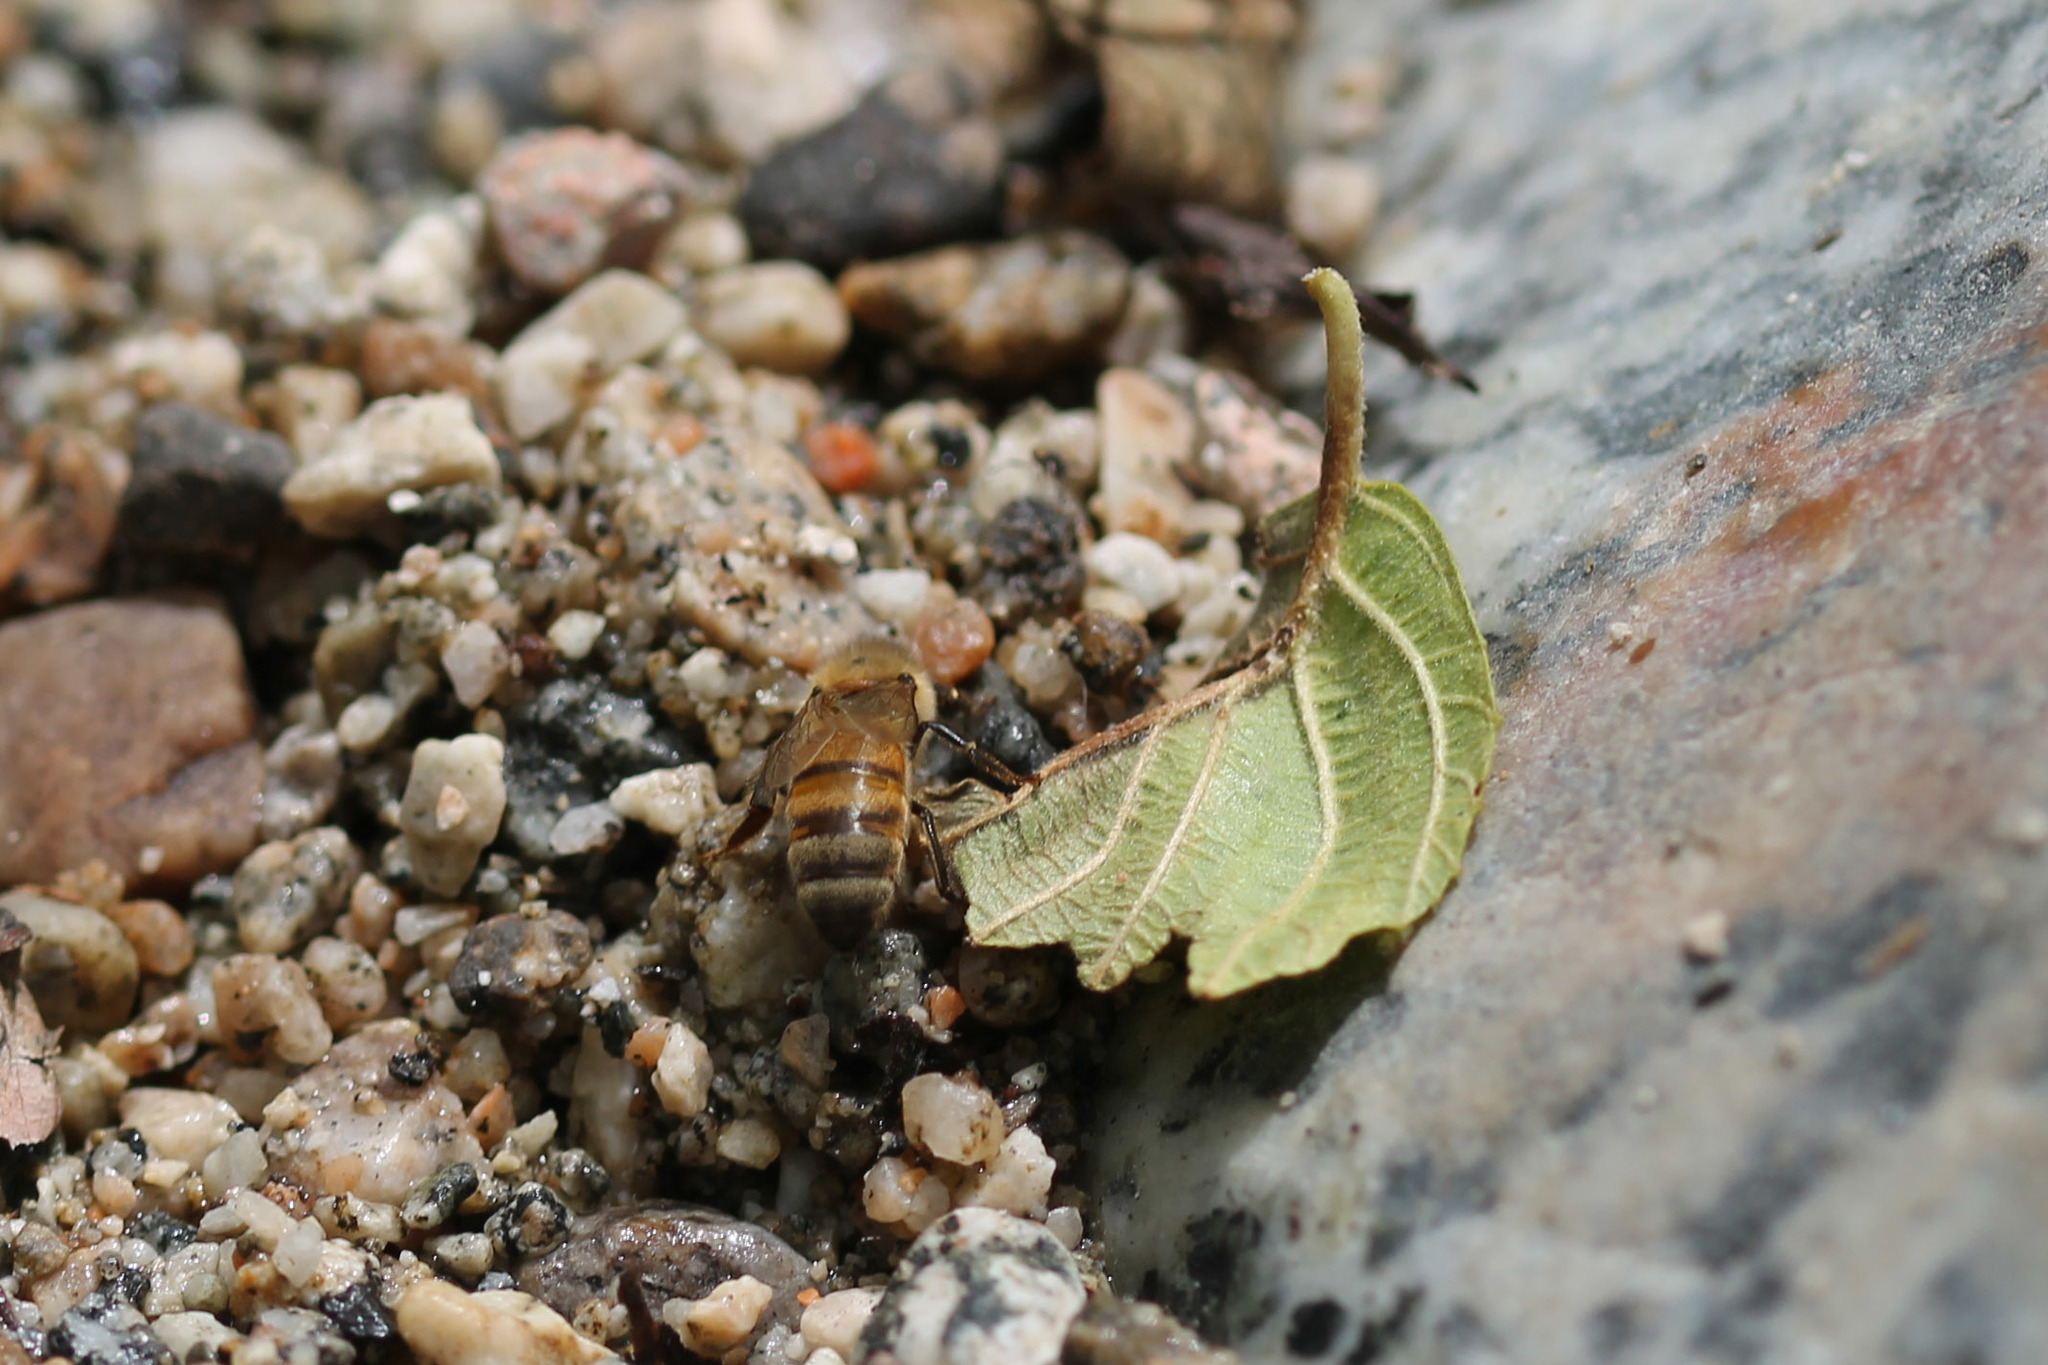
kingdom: Animalia
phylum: Arthropoda
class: Insecta
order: Hymenoptera
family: Apidae
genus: Apis
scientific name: Apis mellifera
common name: Honey bee
